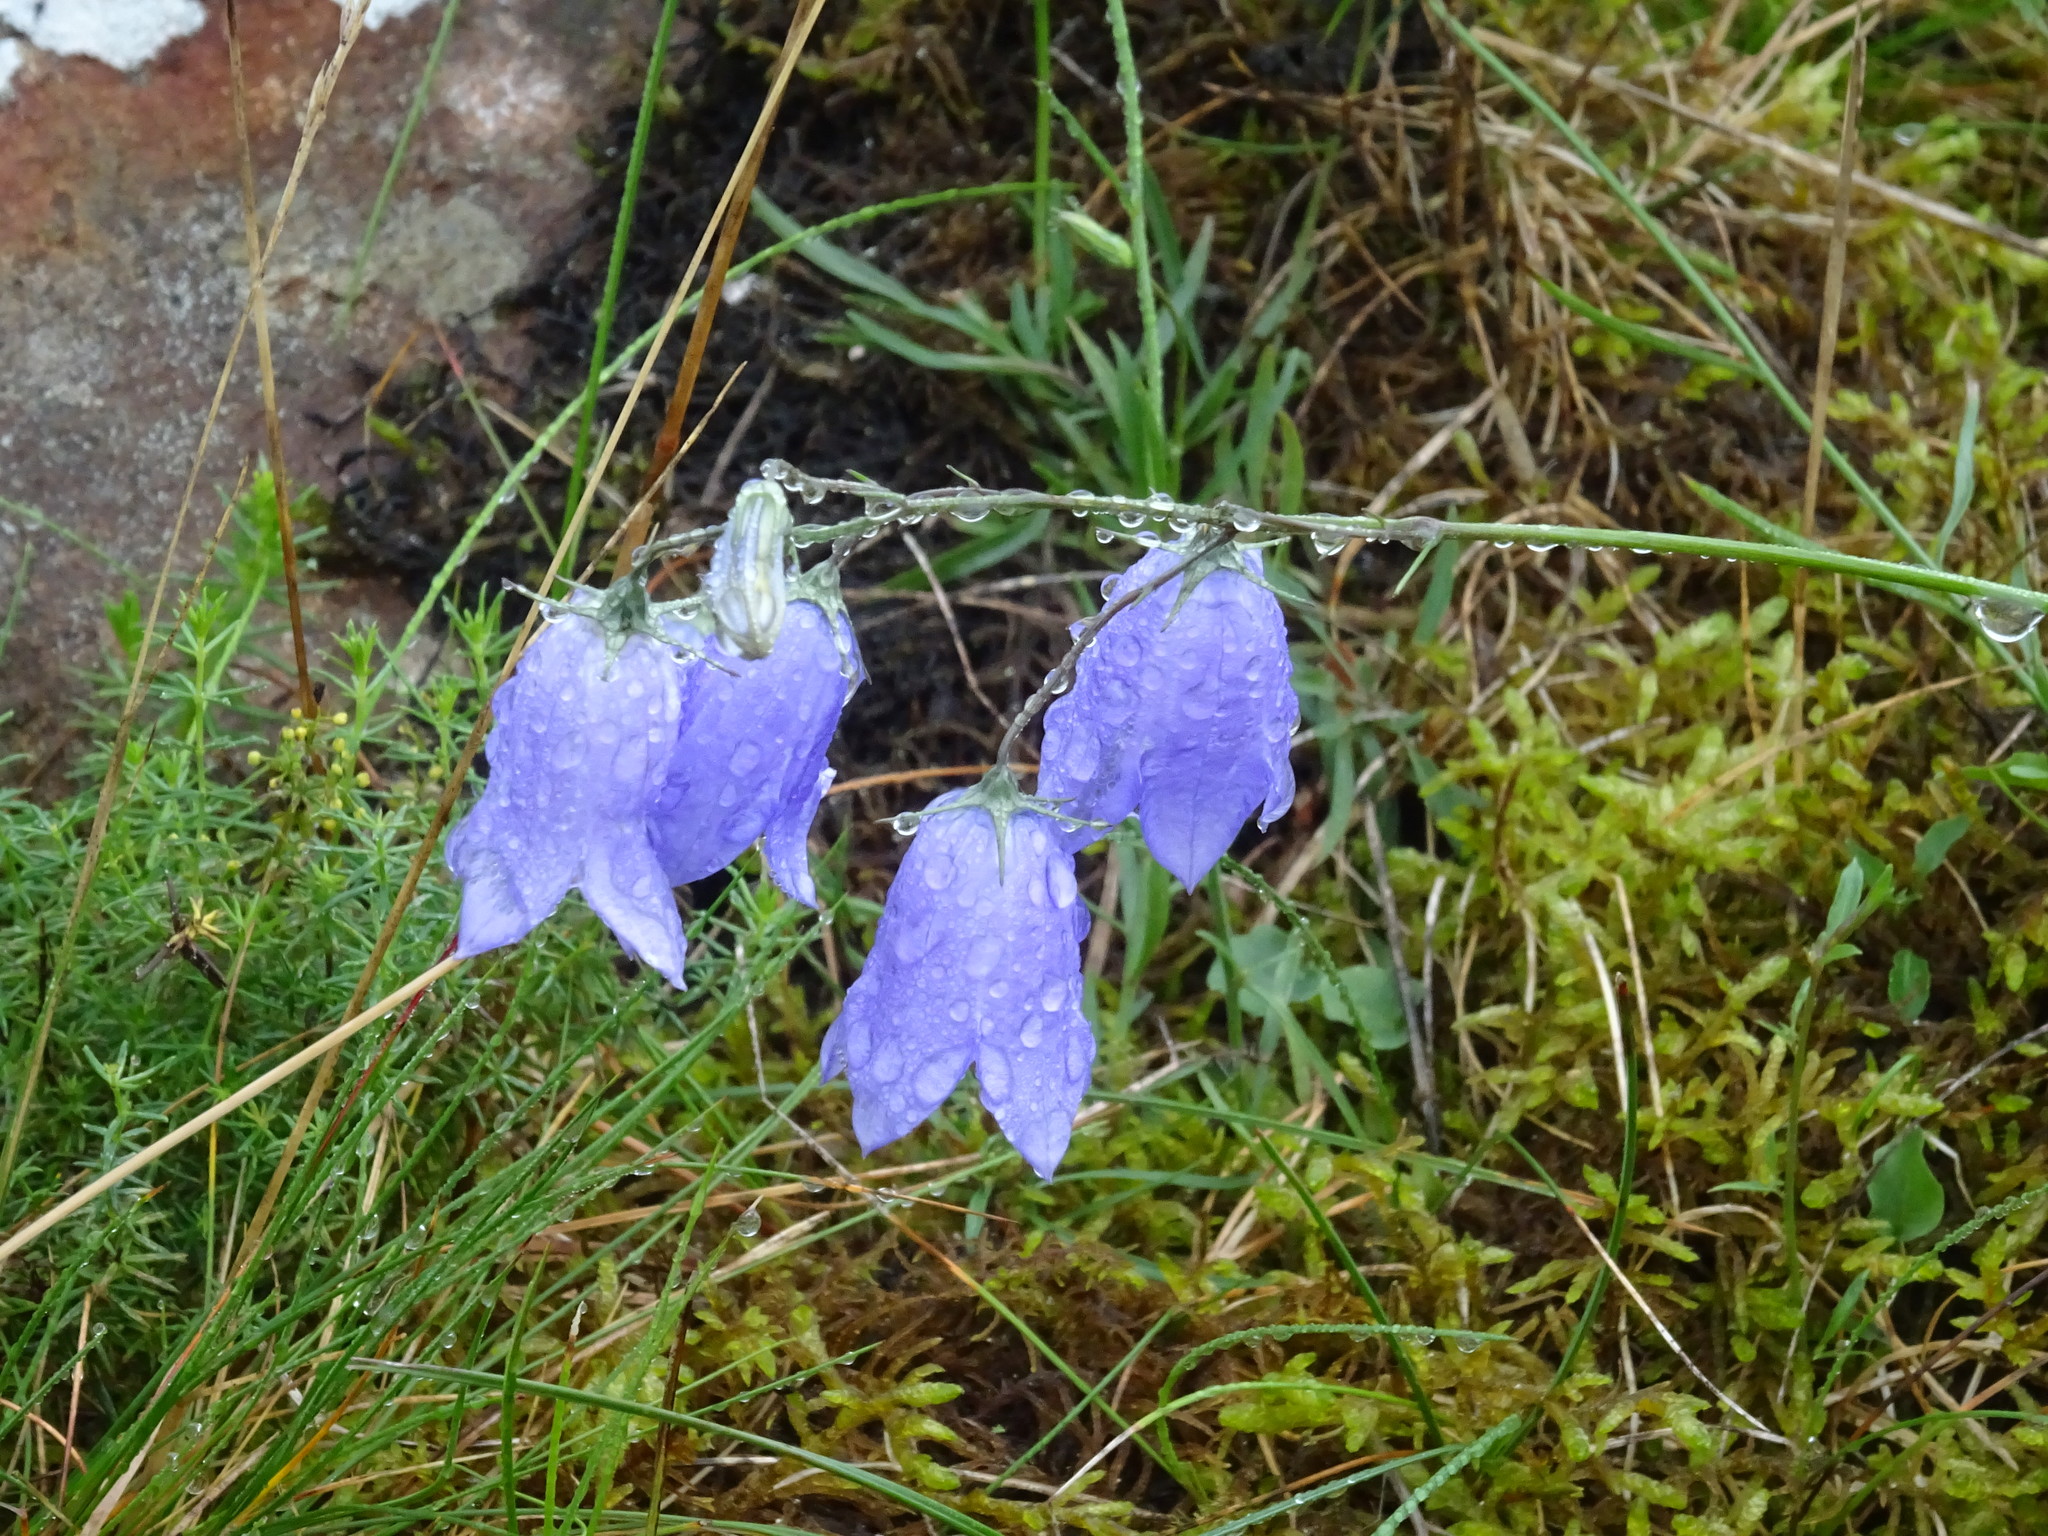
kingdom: Plantae
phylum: Tracheophyta
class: Magnoliopsida
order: Asterales
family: Campanulaceae
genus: Campanula
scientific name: Campanula rotundifolia
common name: Harebell
